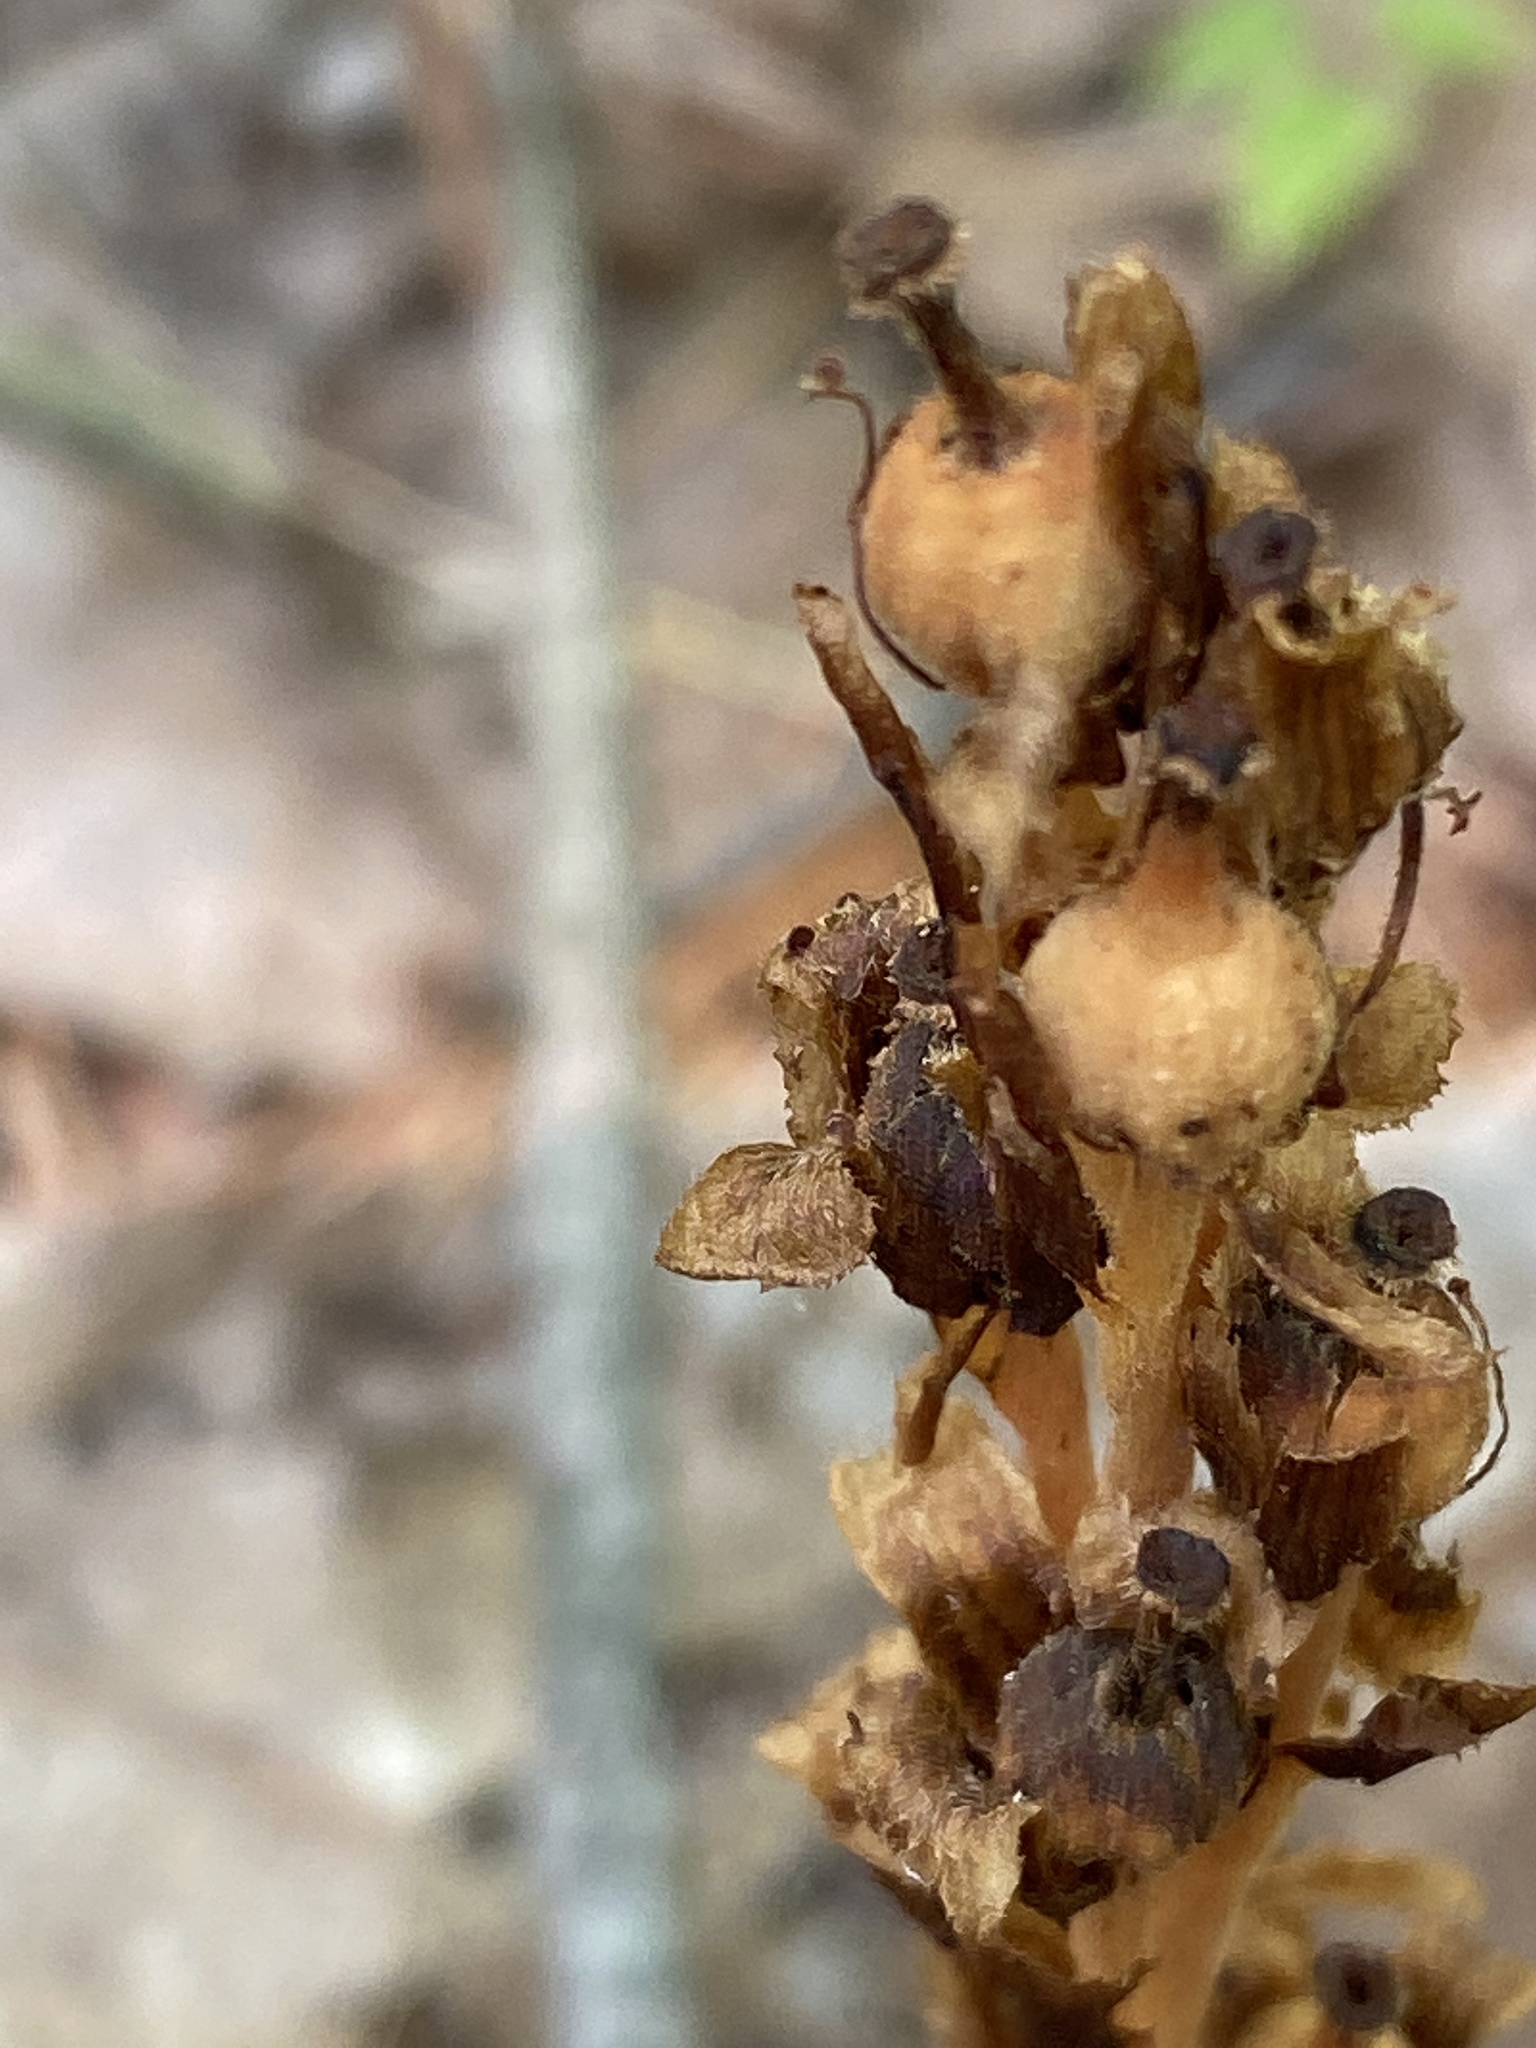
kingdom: Plantae
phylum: Tracheophyta
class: Magnoliopsida
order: Ericales
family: Ericaceae
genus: Hypopitys
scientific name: Hypopitys monotropa
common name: Yellow bird's-nest
